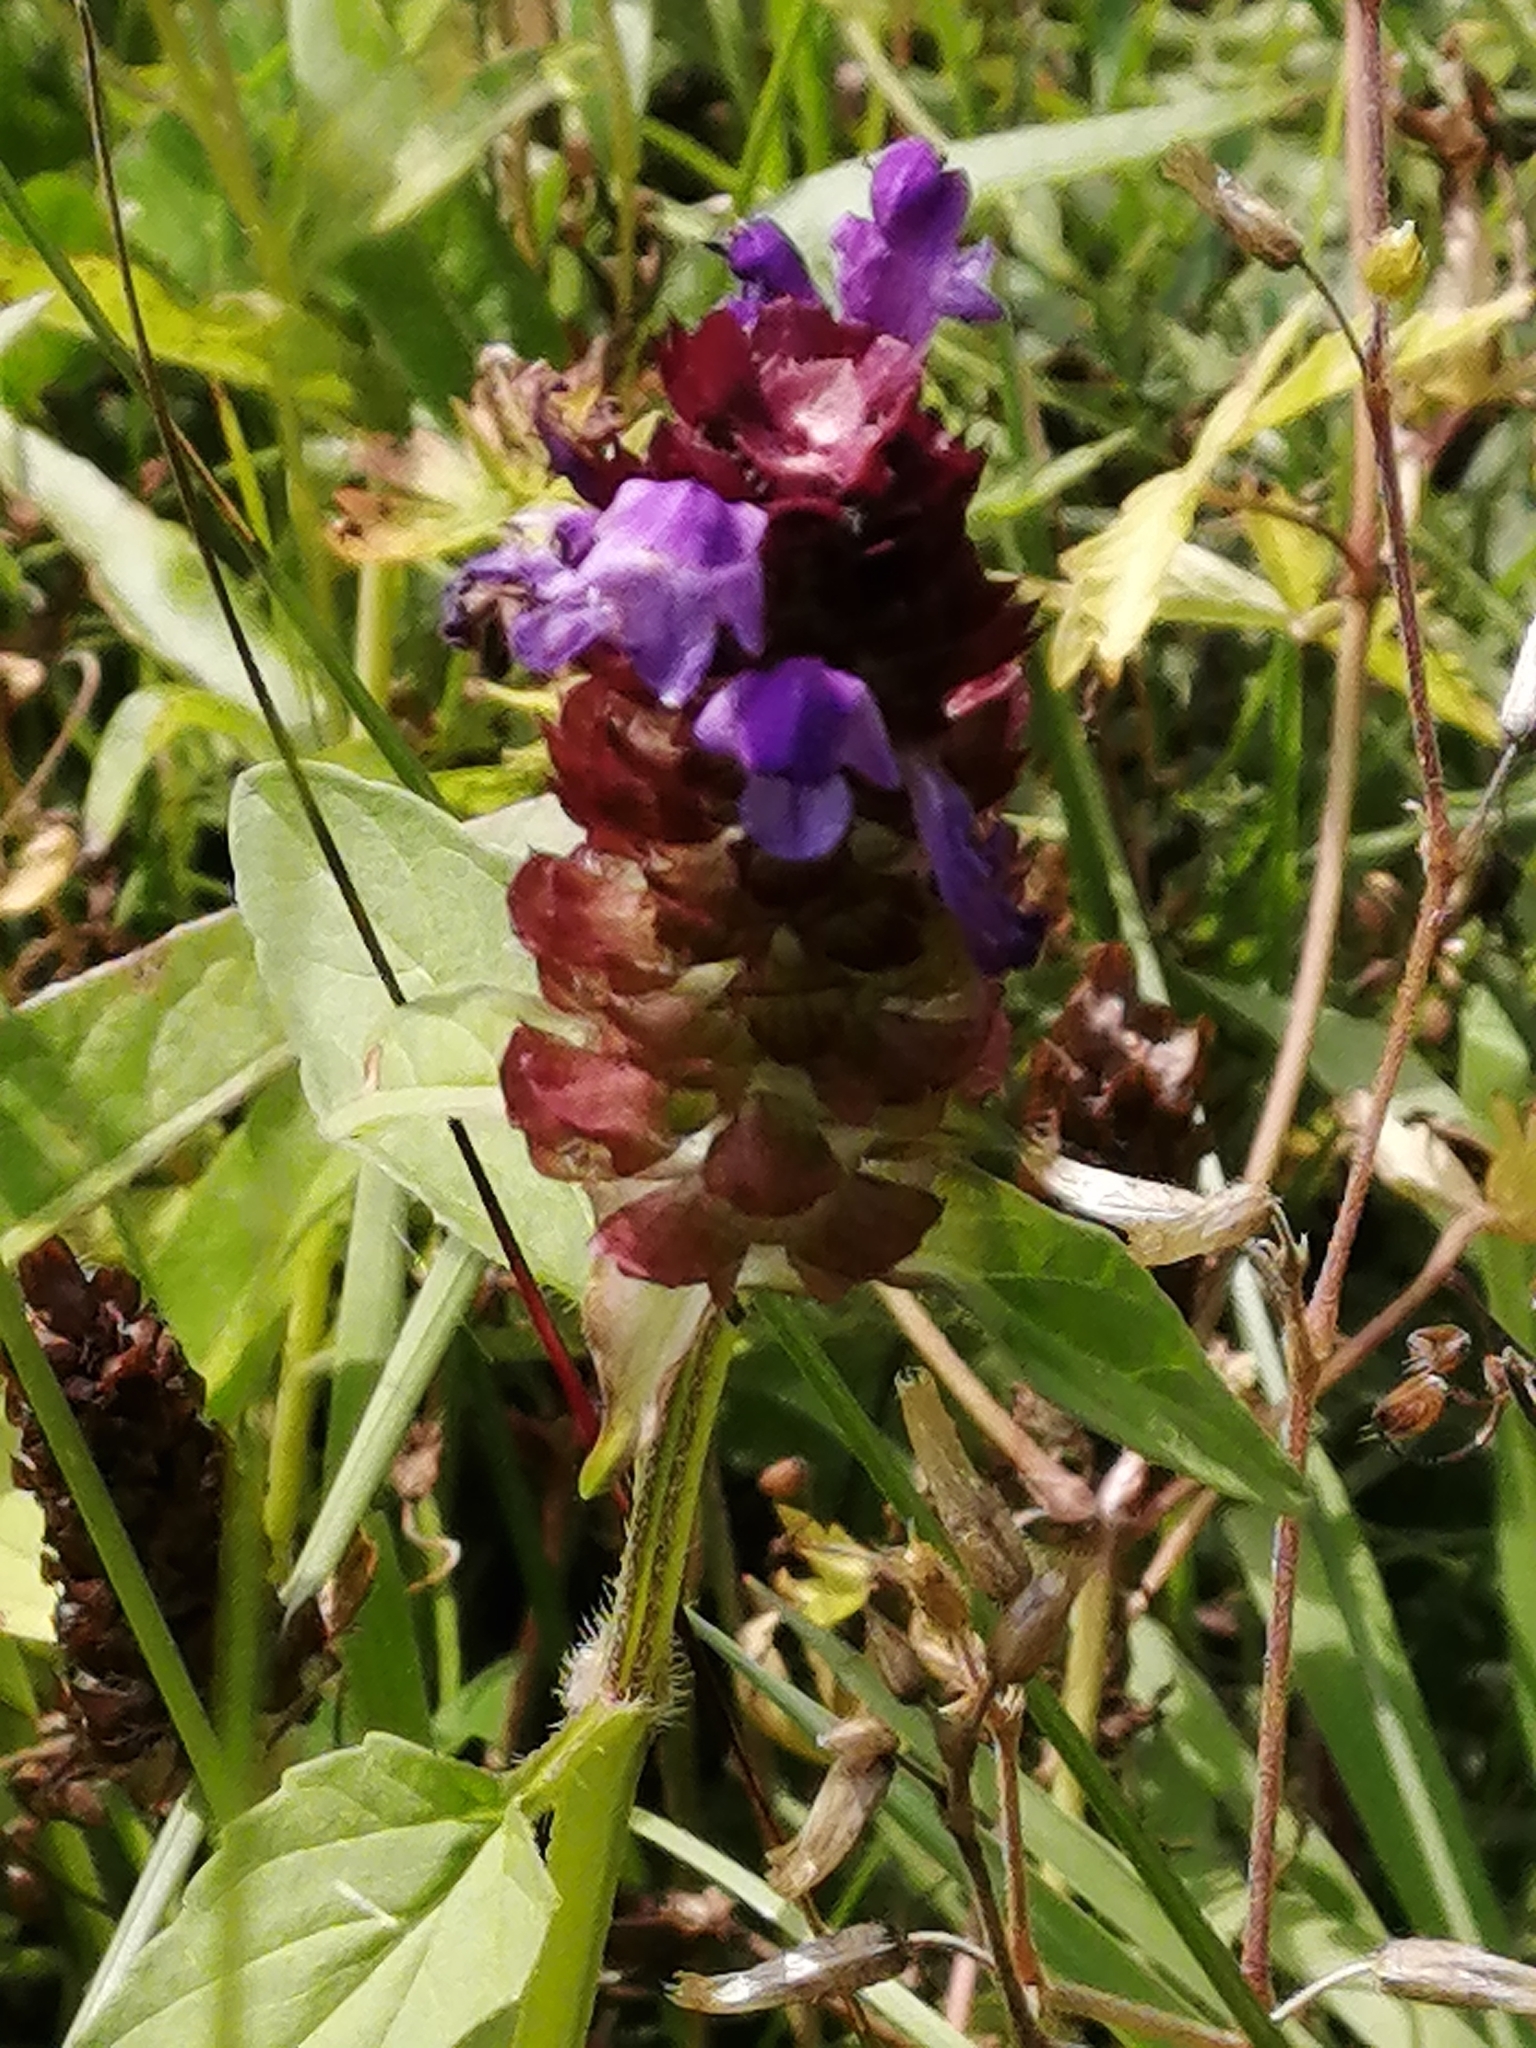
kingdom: Plantae
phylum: Tracheophyta
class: Magnoliopsida
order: Lamiales
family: Lamiaceae
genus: Prunella
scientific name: Prunella vulgaris
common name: Heal-all
